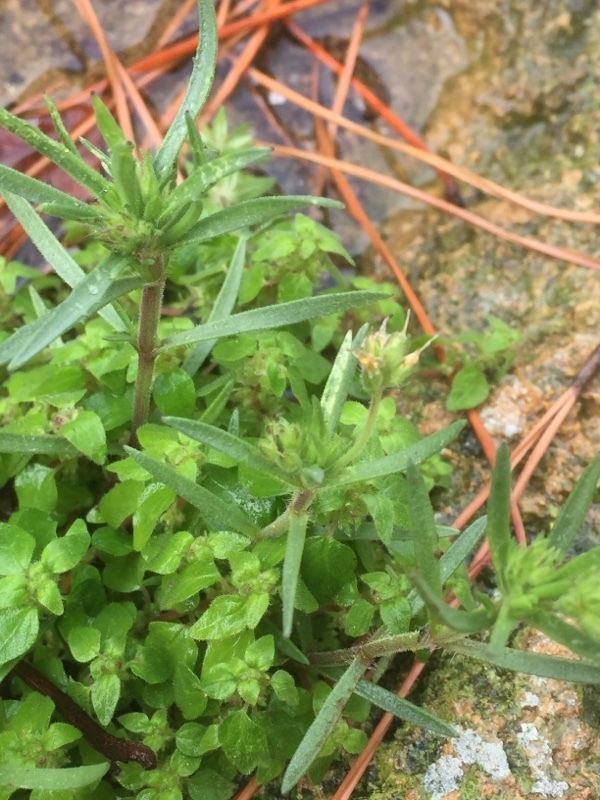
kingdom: Plantae
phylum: Tracheophyta
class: Magnoliopsida
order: Lamiales
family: Plantaginaceae
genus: Plantago
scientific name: Plantago lagopus
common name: Hare-foot plantain
